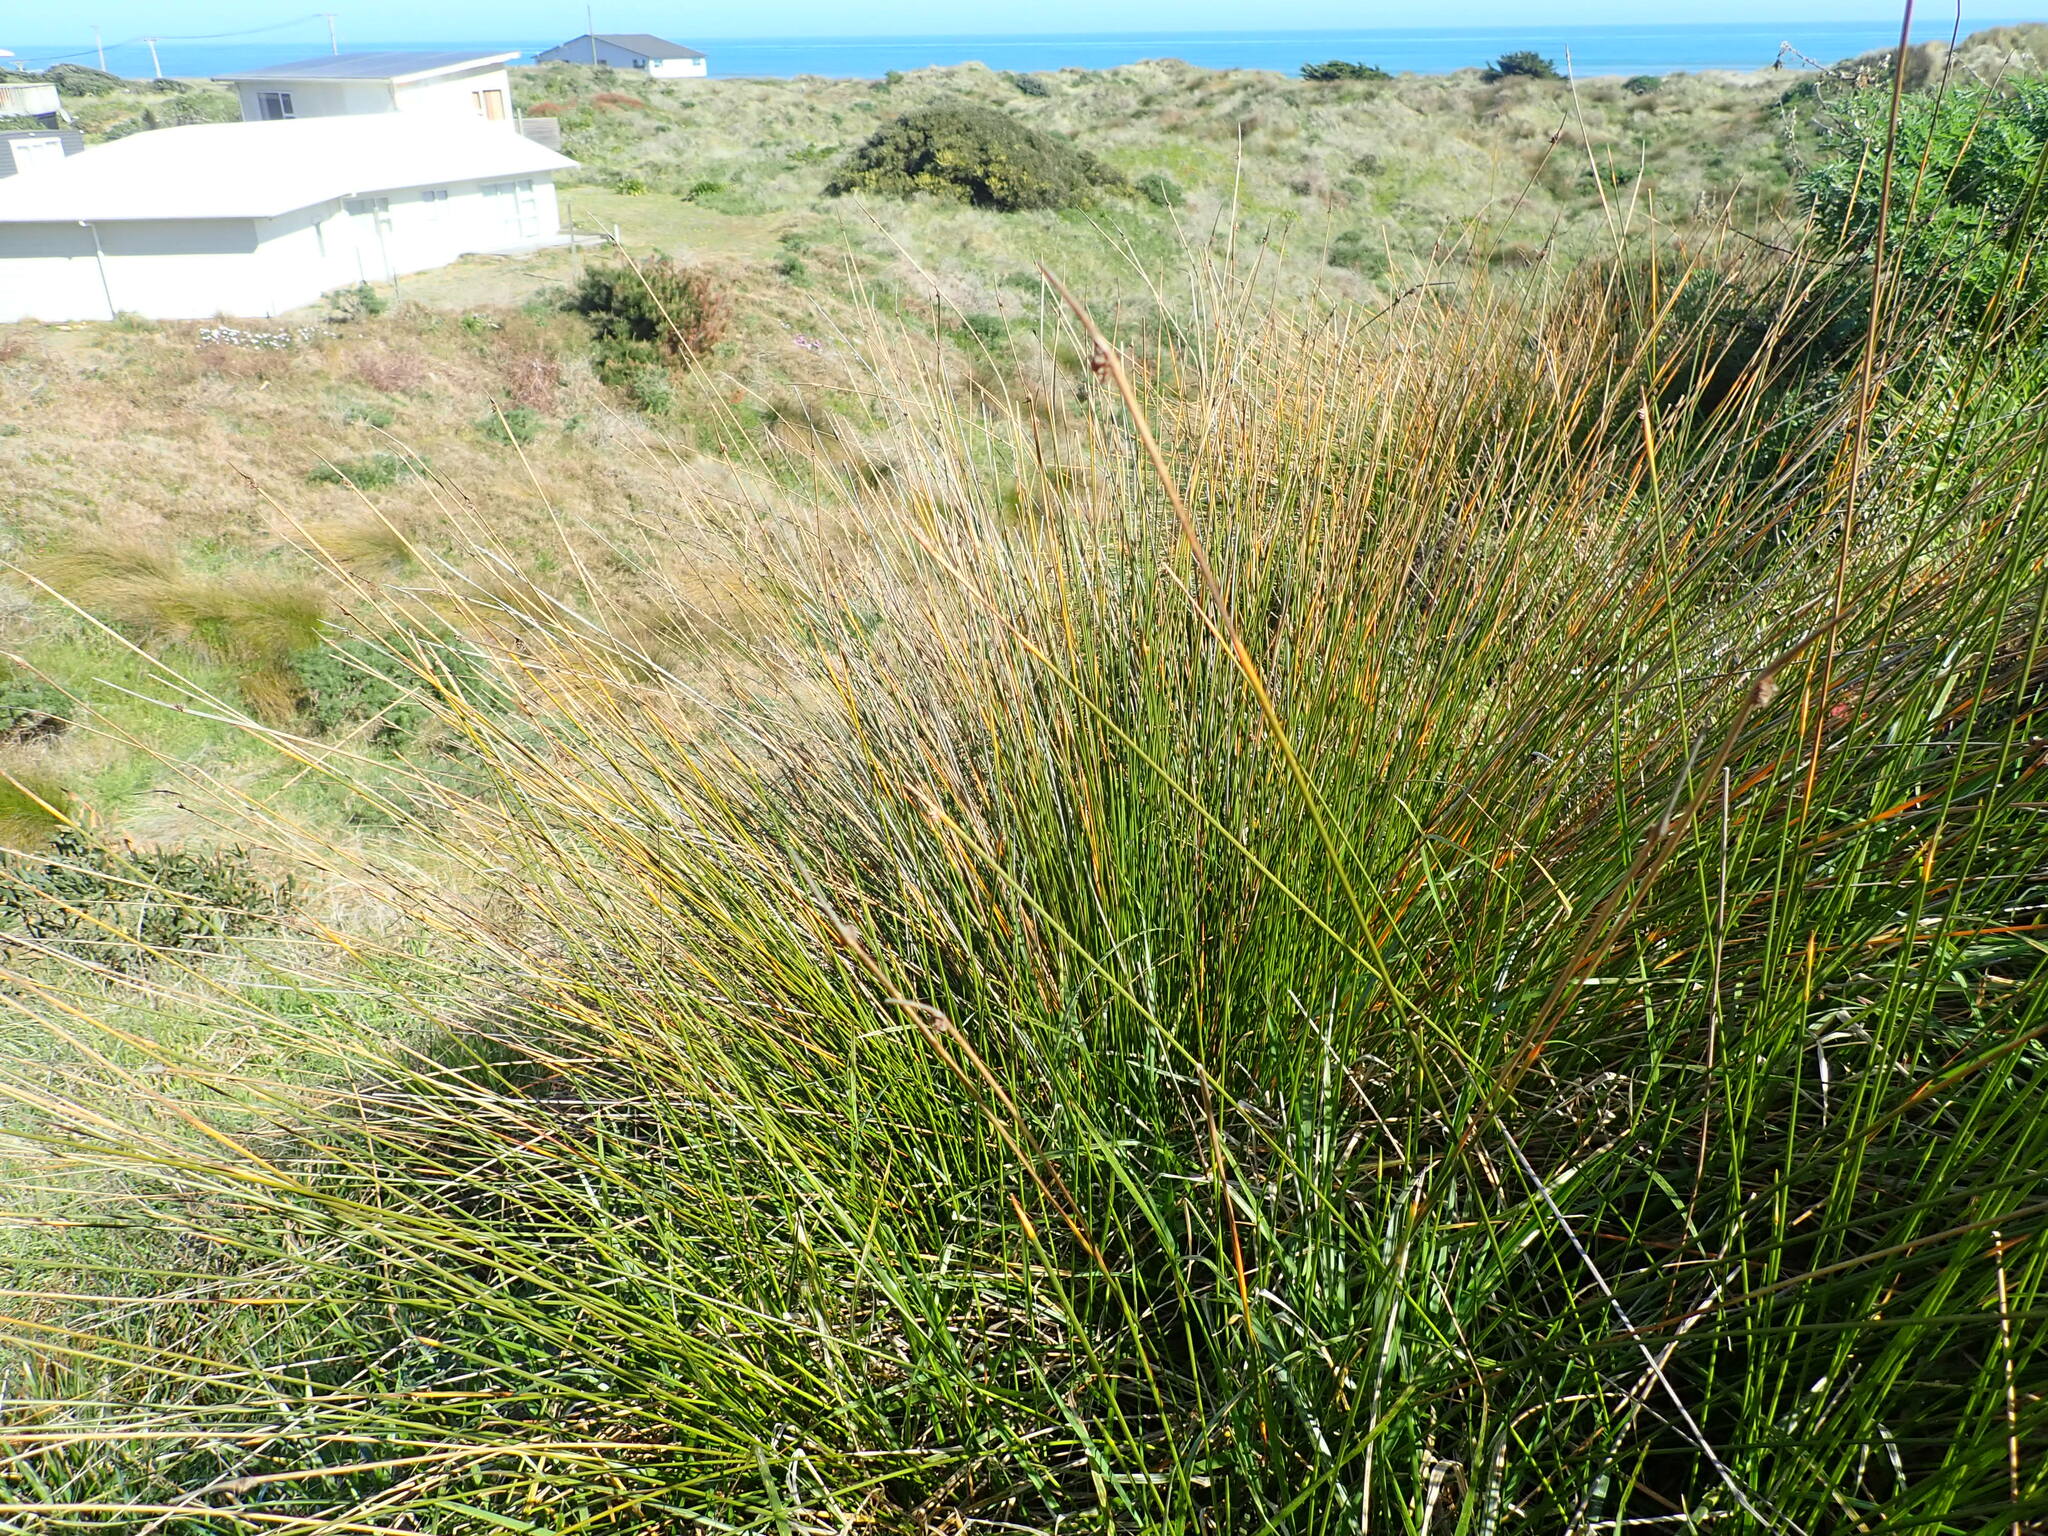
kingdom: Plantae
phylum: Tracheophyta
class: Liliopsida
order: Poales
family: Cyperaceae
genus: Ficinia
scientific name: Ficinia nodosa
